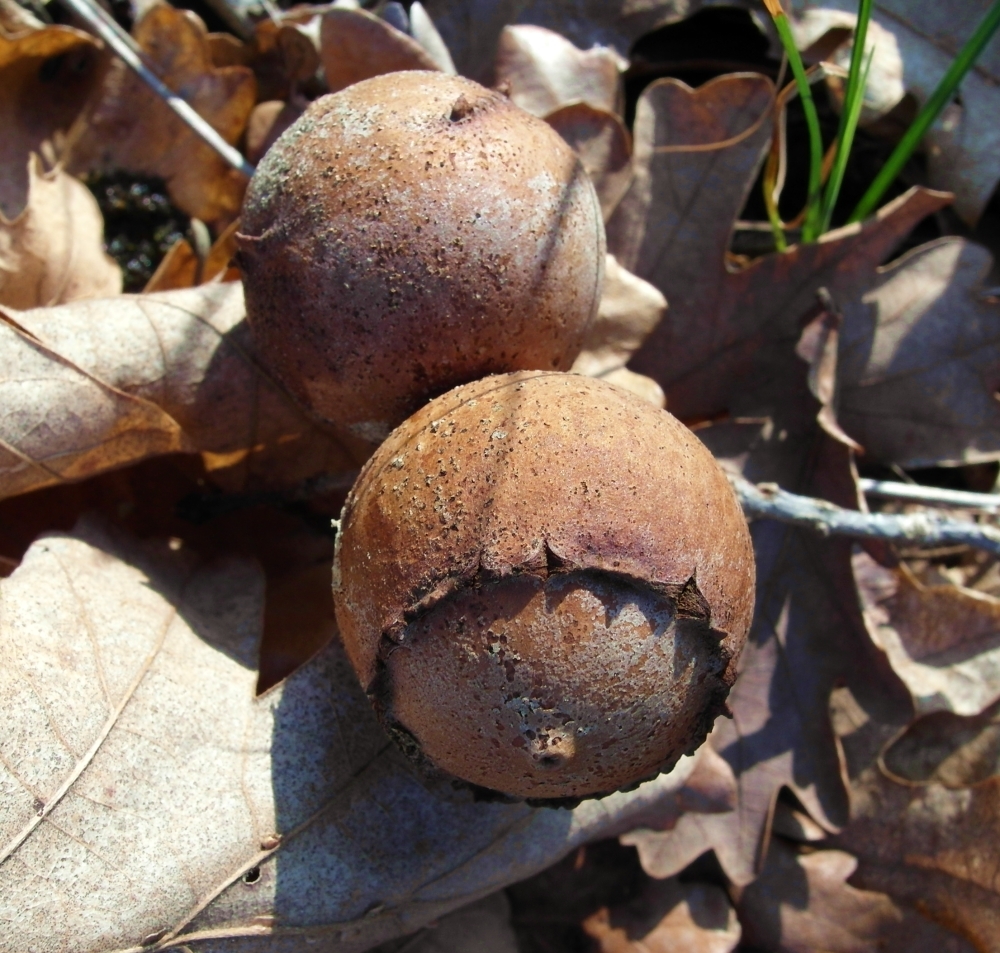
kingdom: Animalia
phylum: Arthropoda
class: Insecta
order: Hymenoptera
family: Cynipidae
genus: Andricus
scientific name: Andricus quercustozae
